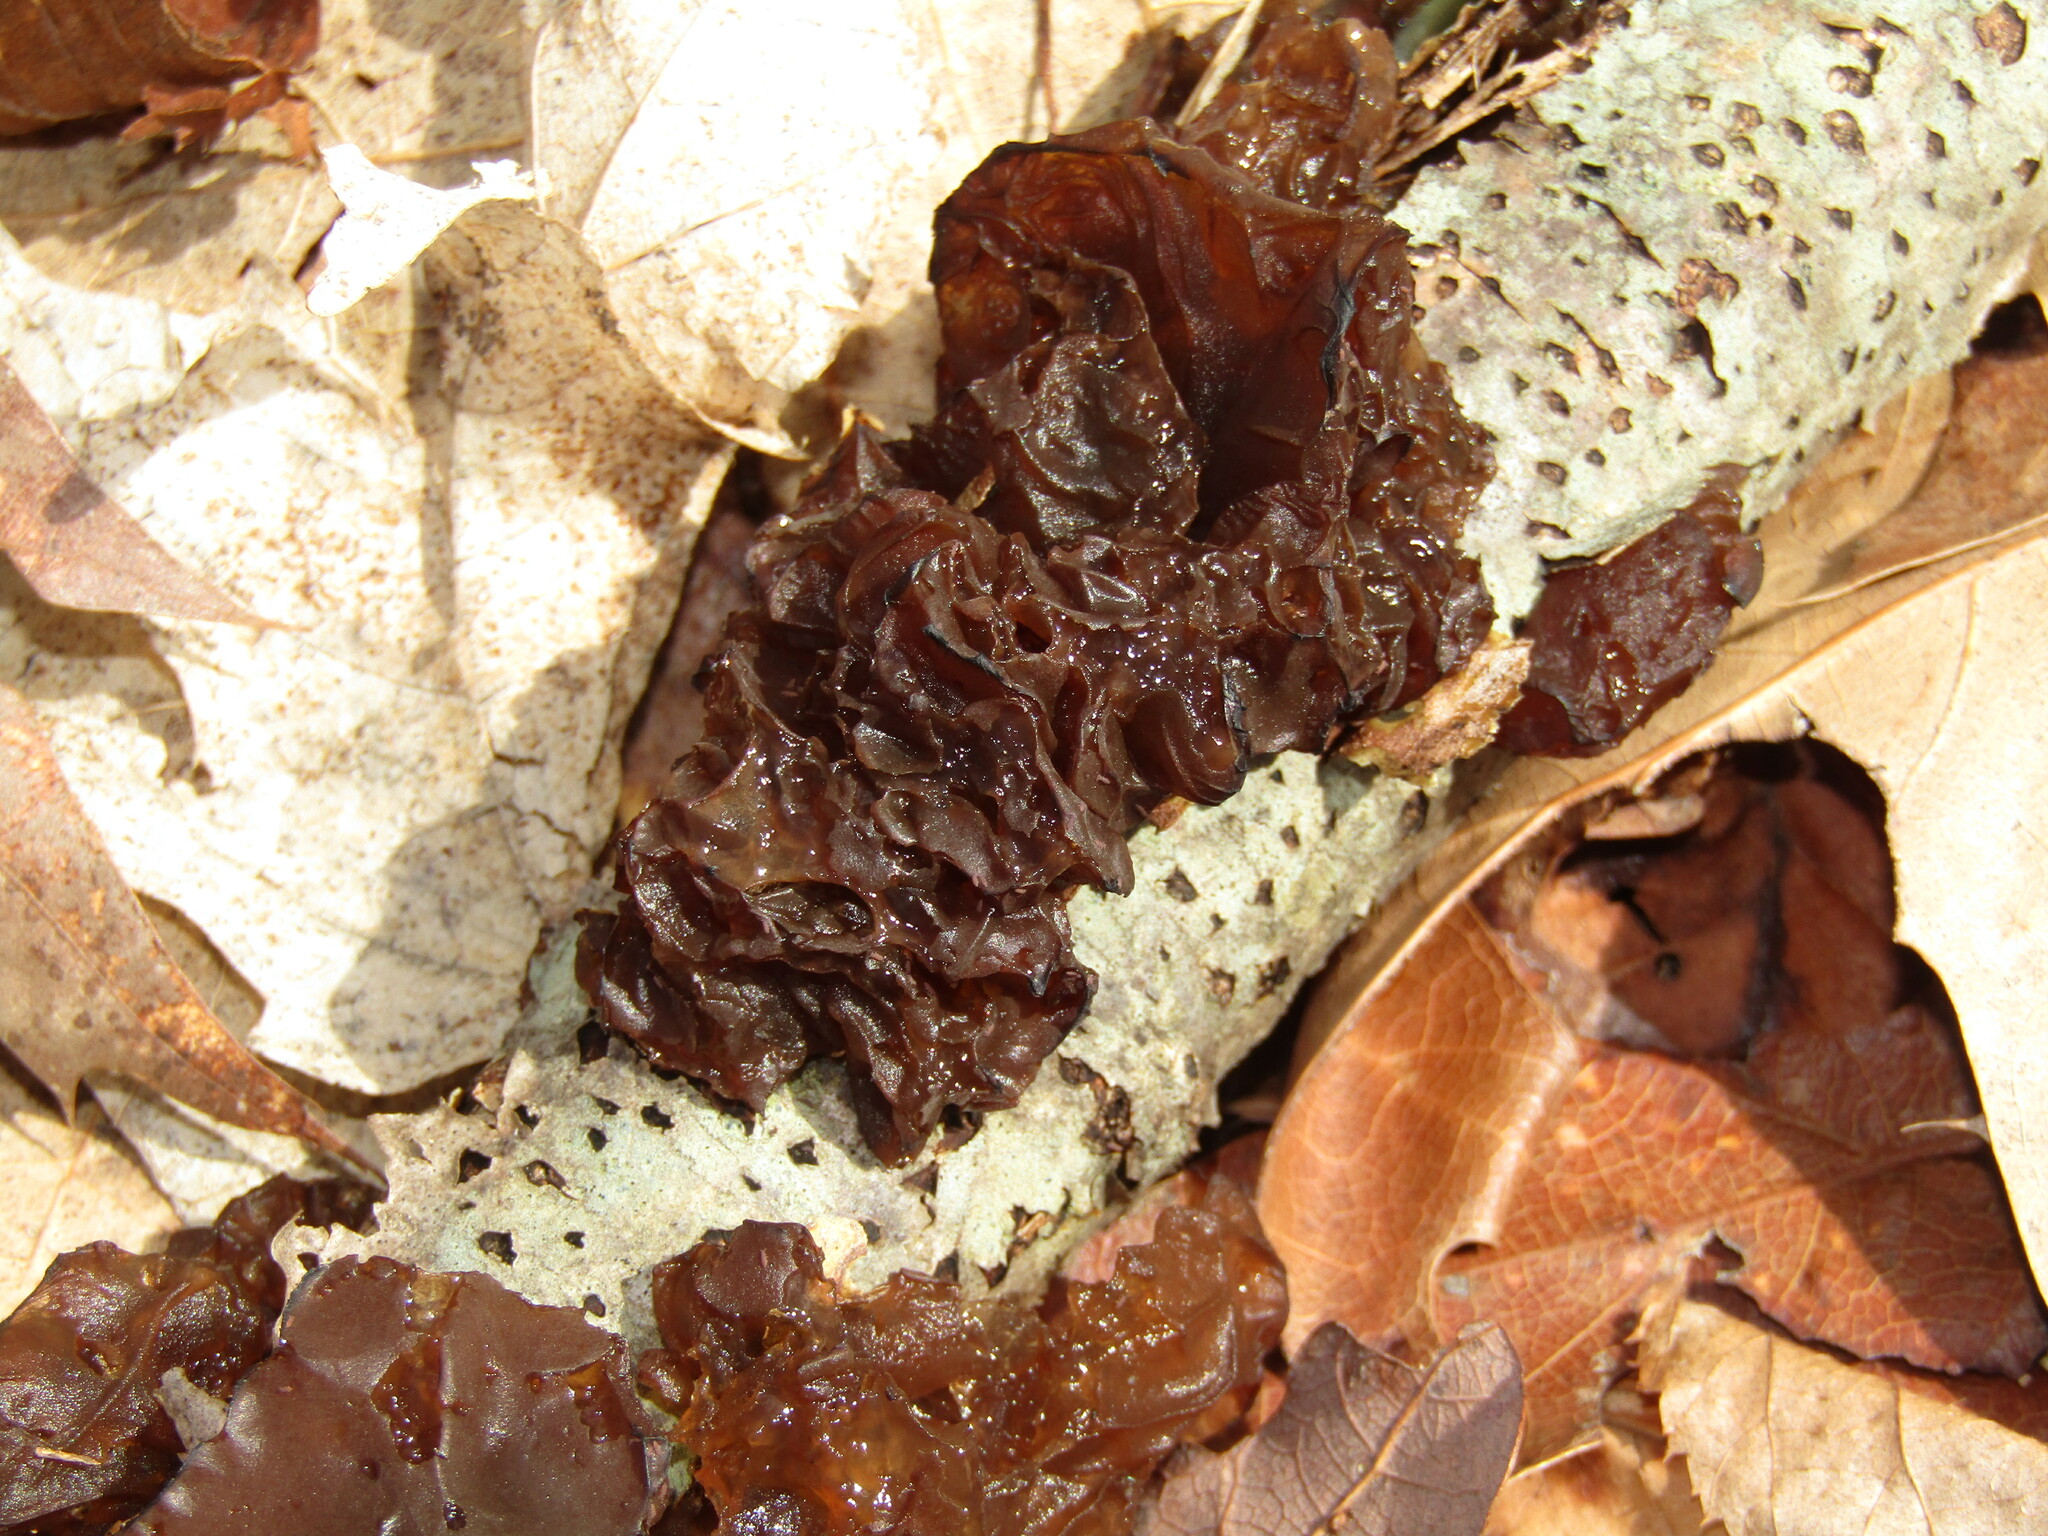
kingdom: Fungi
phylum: Basidiomycota
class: Agaricomycetes
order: Auriculariales
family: Auriculariaceae
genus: Exidia
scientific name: Exidia
